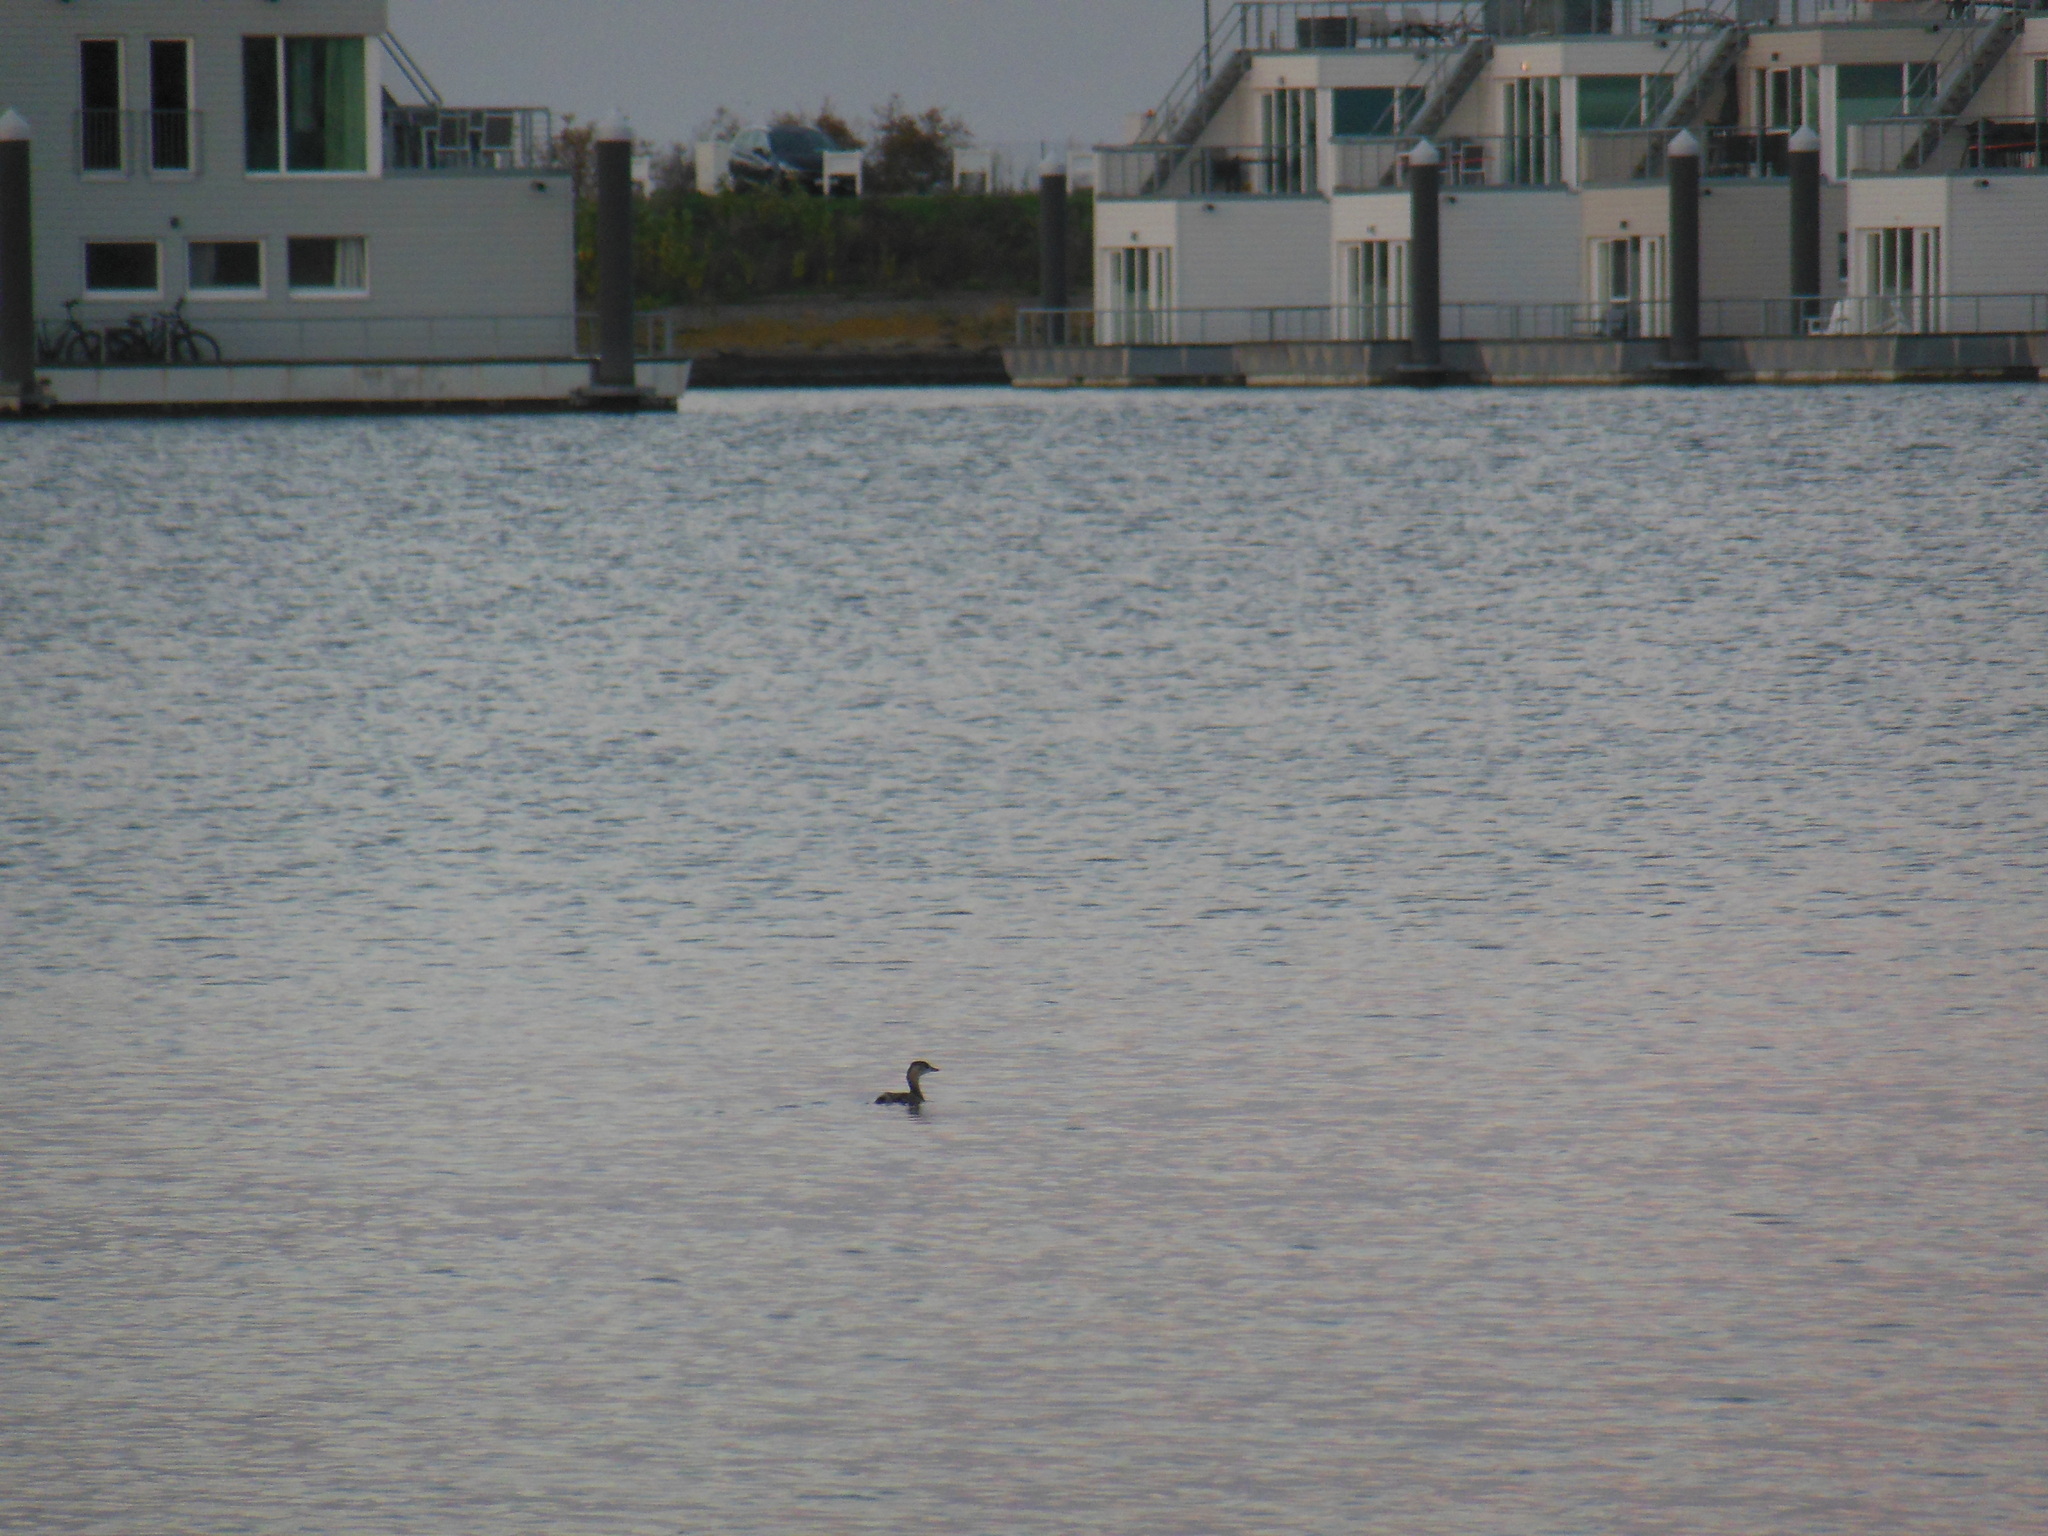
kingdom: Animalia
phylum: Chordata
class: Aves
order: Podicipediformes
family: Podicipedidae
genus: Tachybaptus
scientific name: Tachybaptus ruficollis
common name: Little grebe
